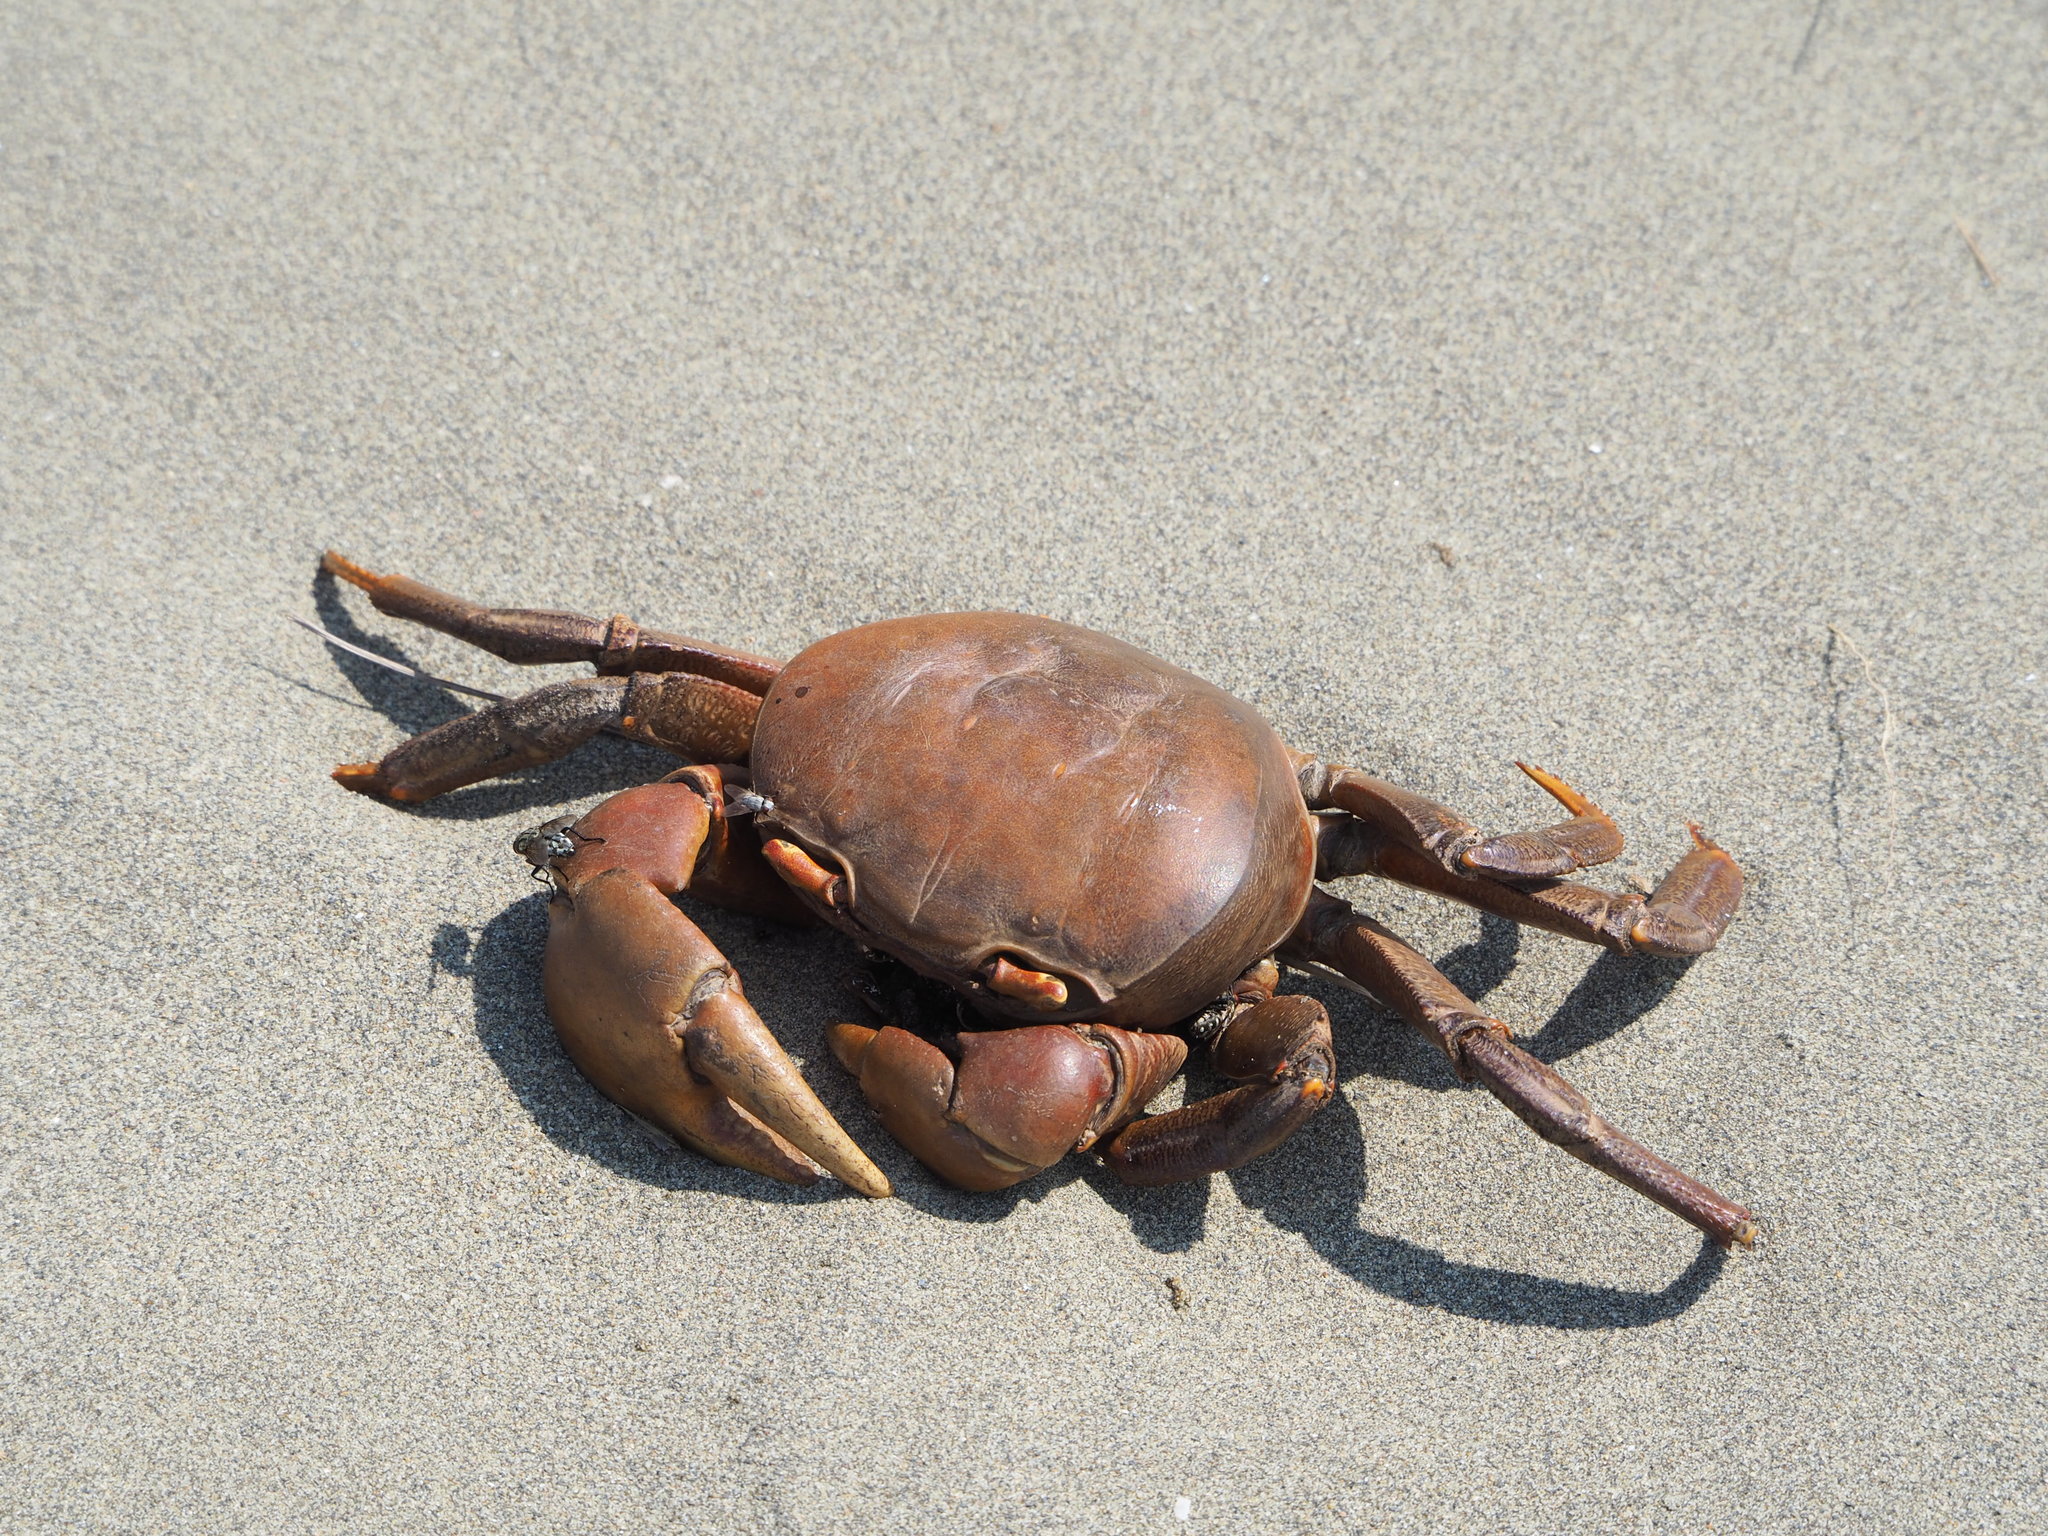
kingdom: Animalia
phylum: Arthropoda
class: Malacostraca
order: Decapoda
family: Gecarcinidae
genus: Cardisoma
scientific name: Cardisoma carnifex
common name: Brown land crab
